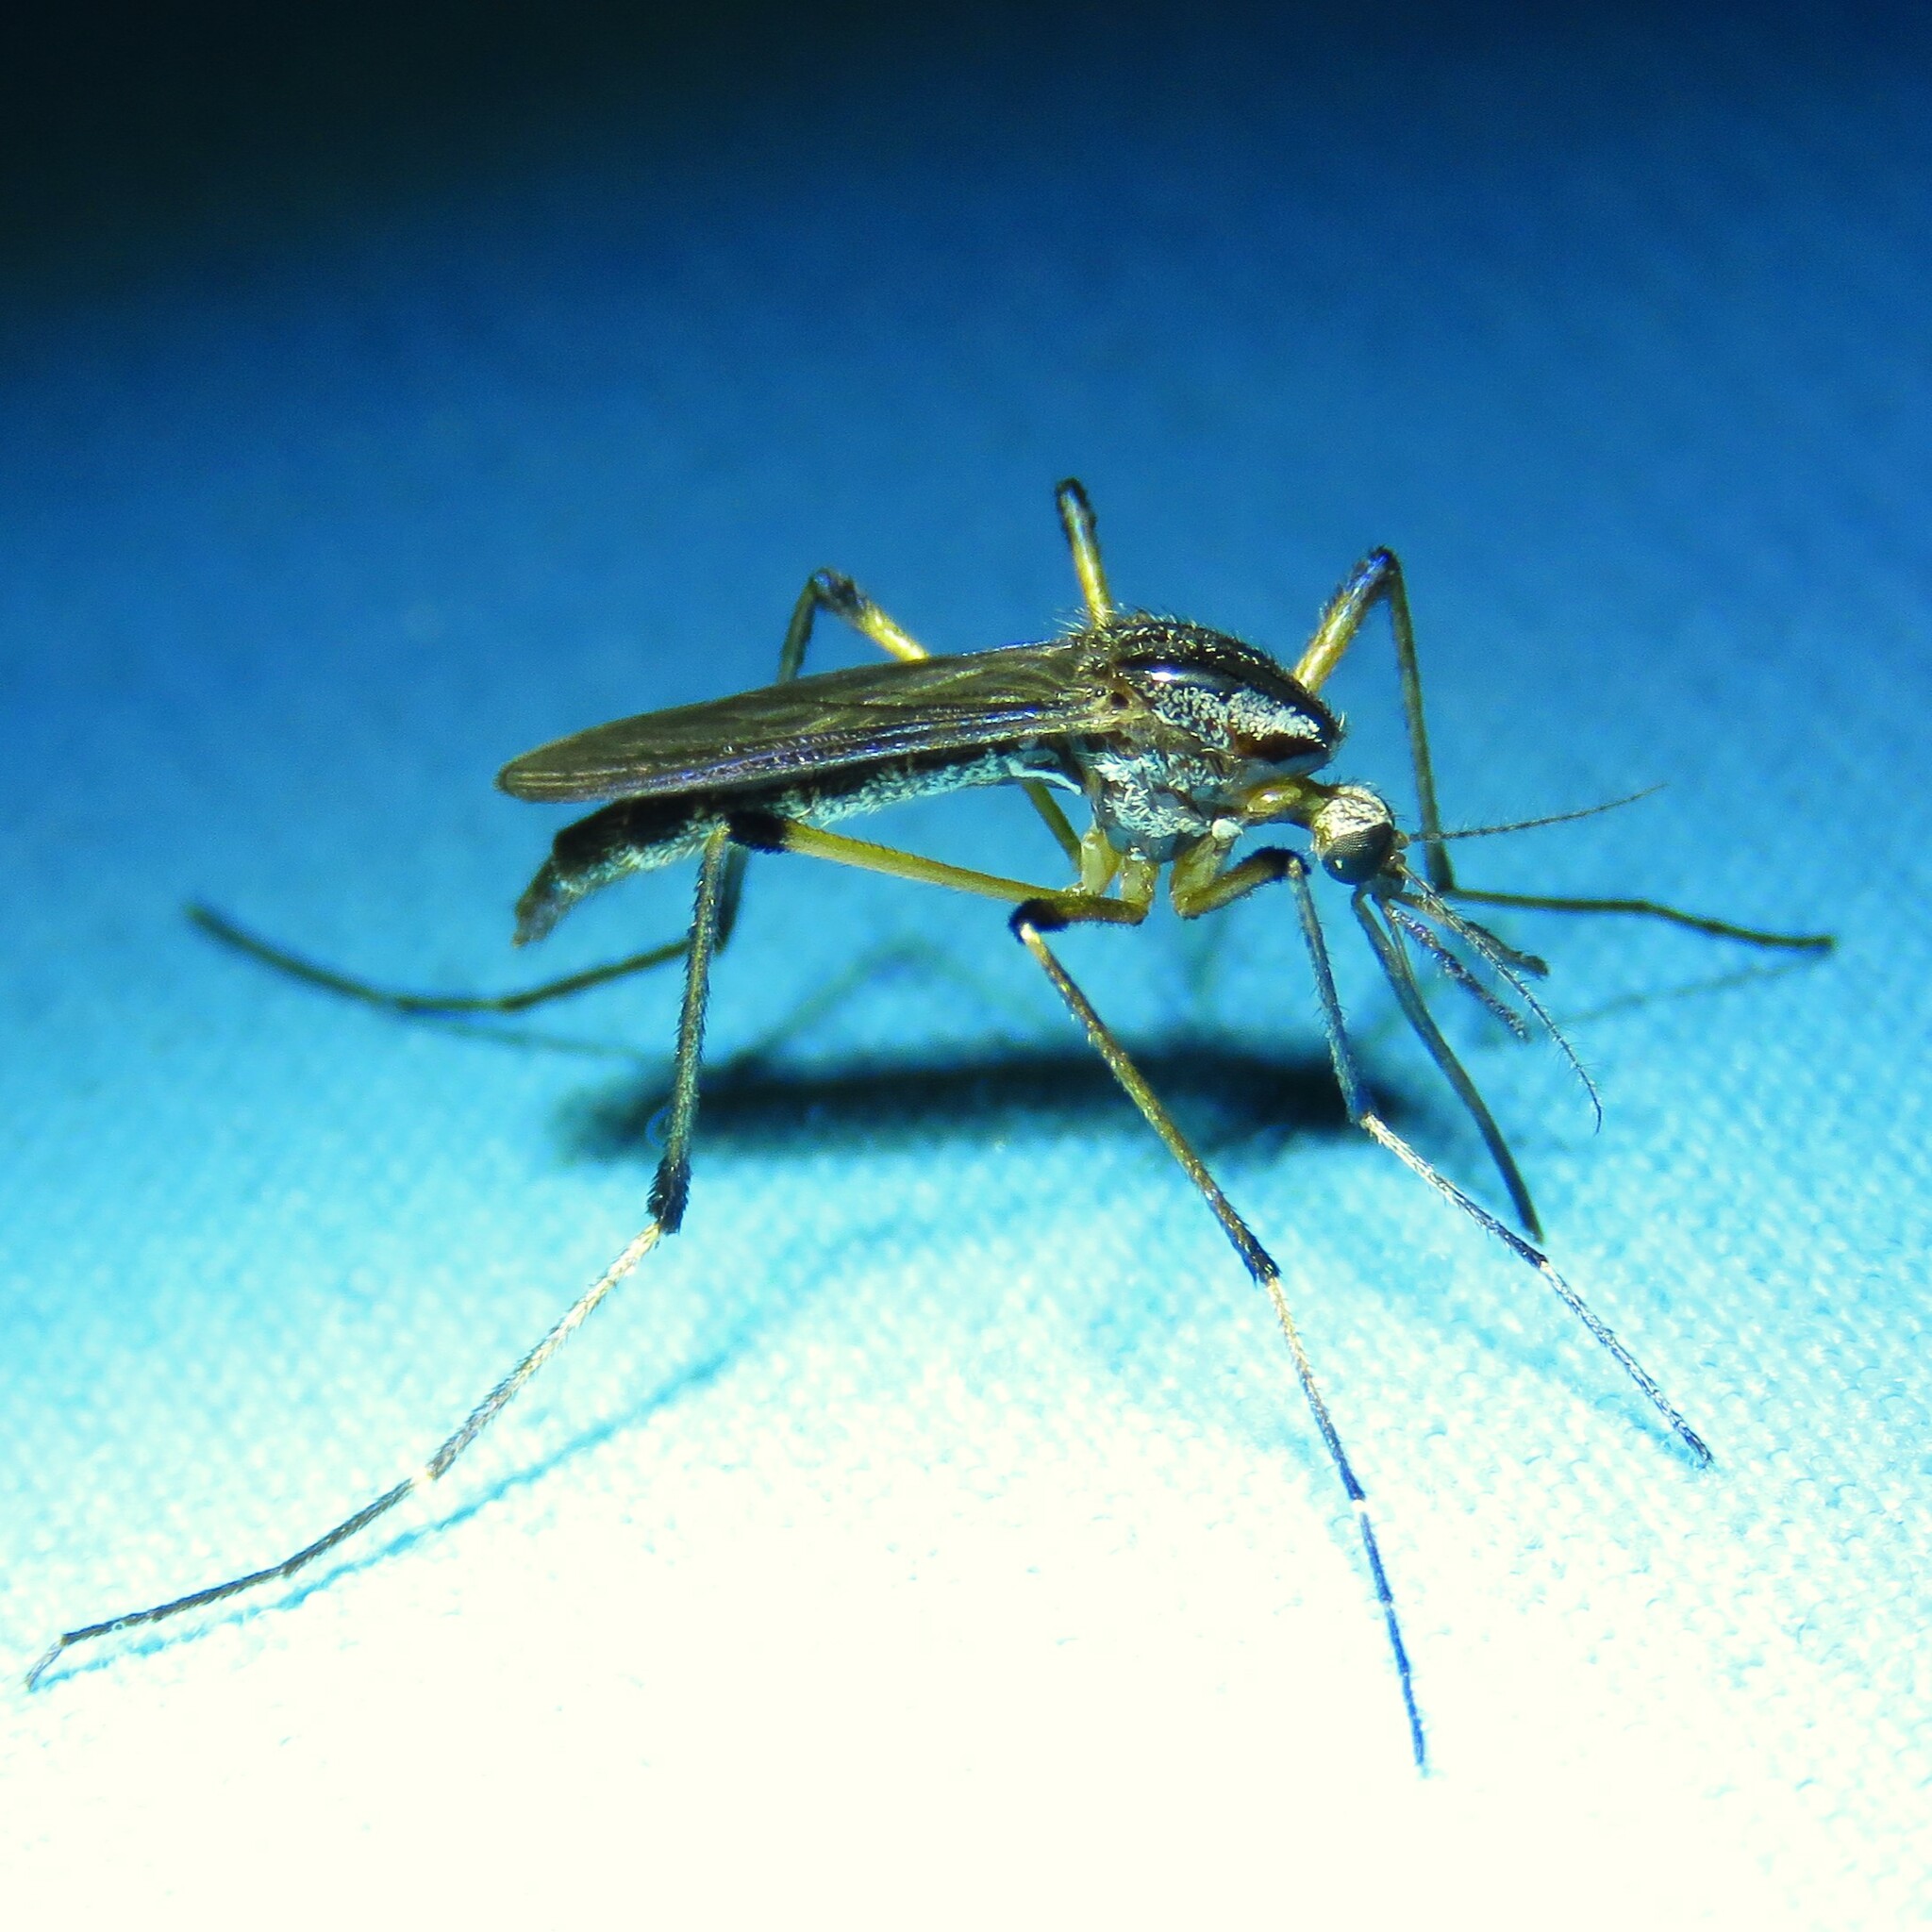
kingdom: Animalia
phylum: Arthropoda
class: Insecta
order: Diptera
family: Culicidae
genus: Psorophora
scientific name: Psorophora howardii
